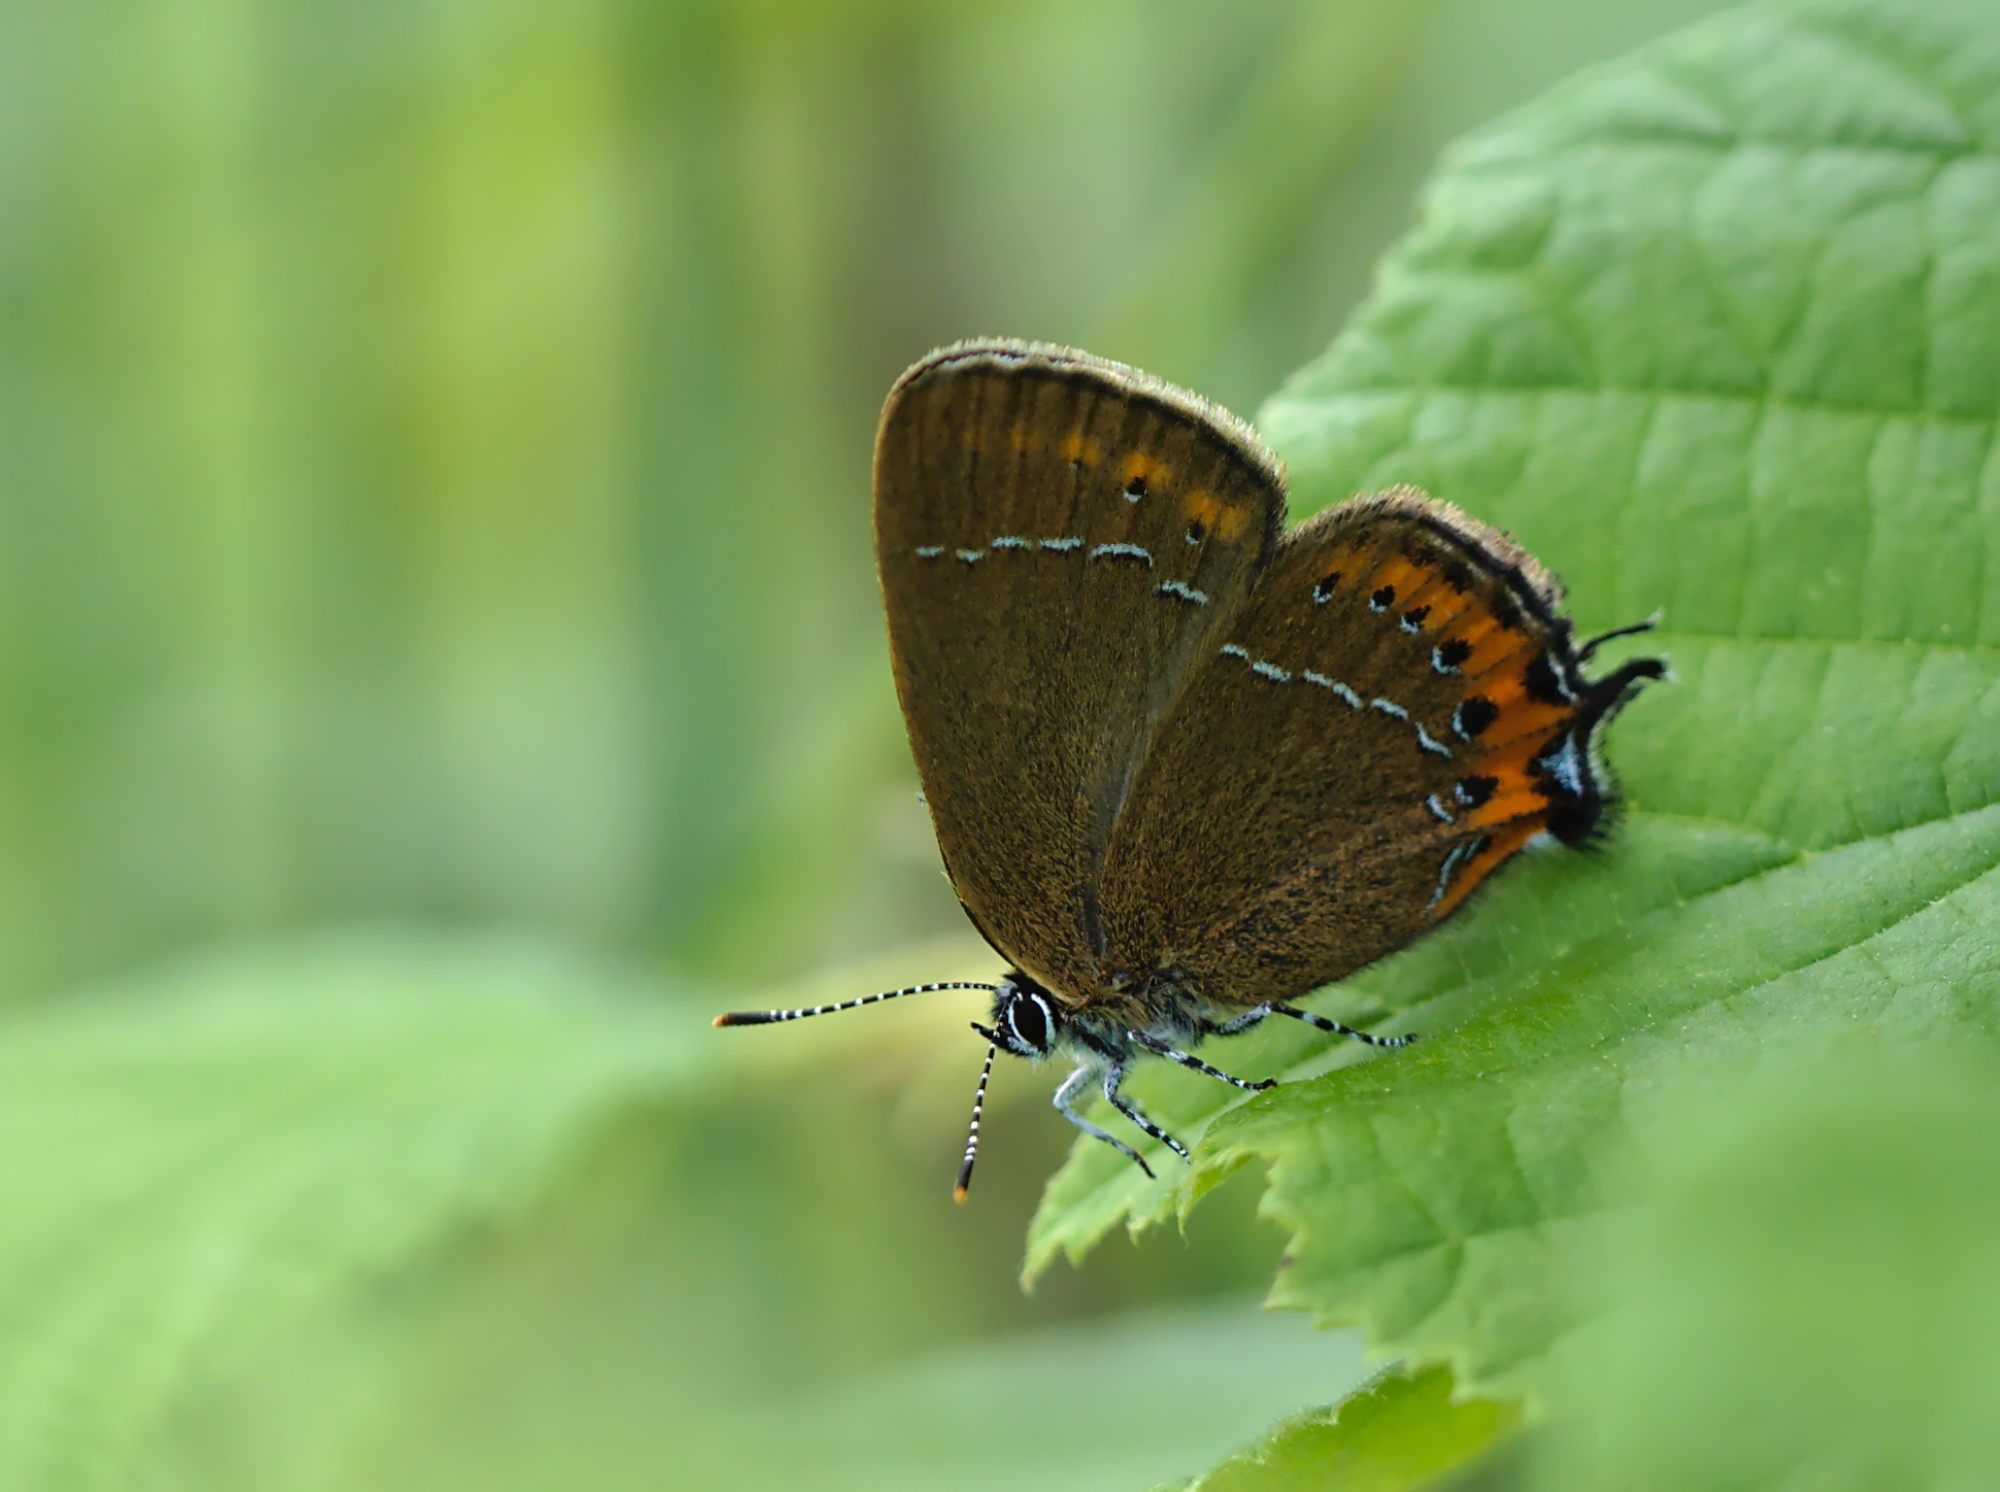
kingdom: Animalia
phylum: Arthropoda
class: Insecta
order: Lepidoptera
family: Lycaenidae
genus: Fixsenia
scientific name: Fixsenia pruni
